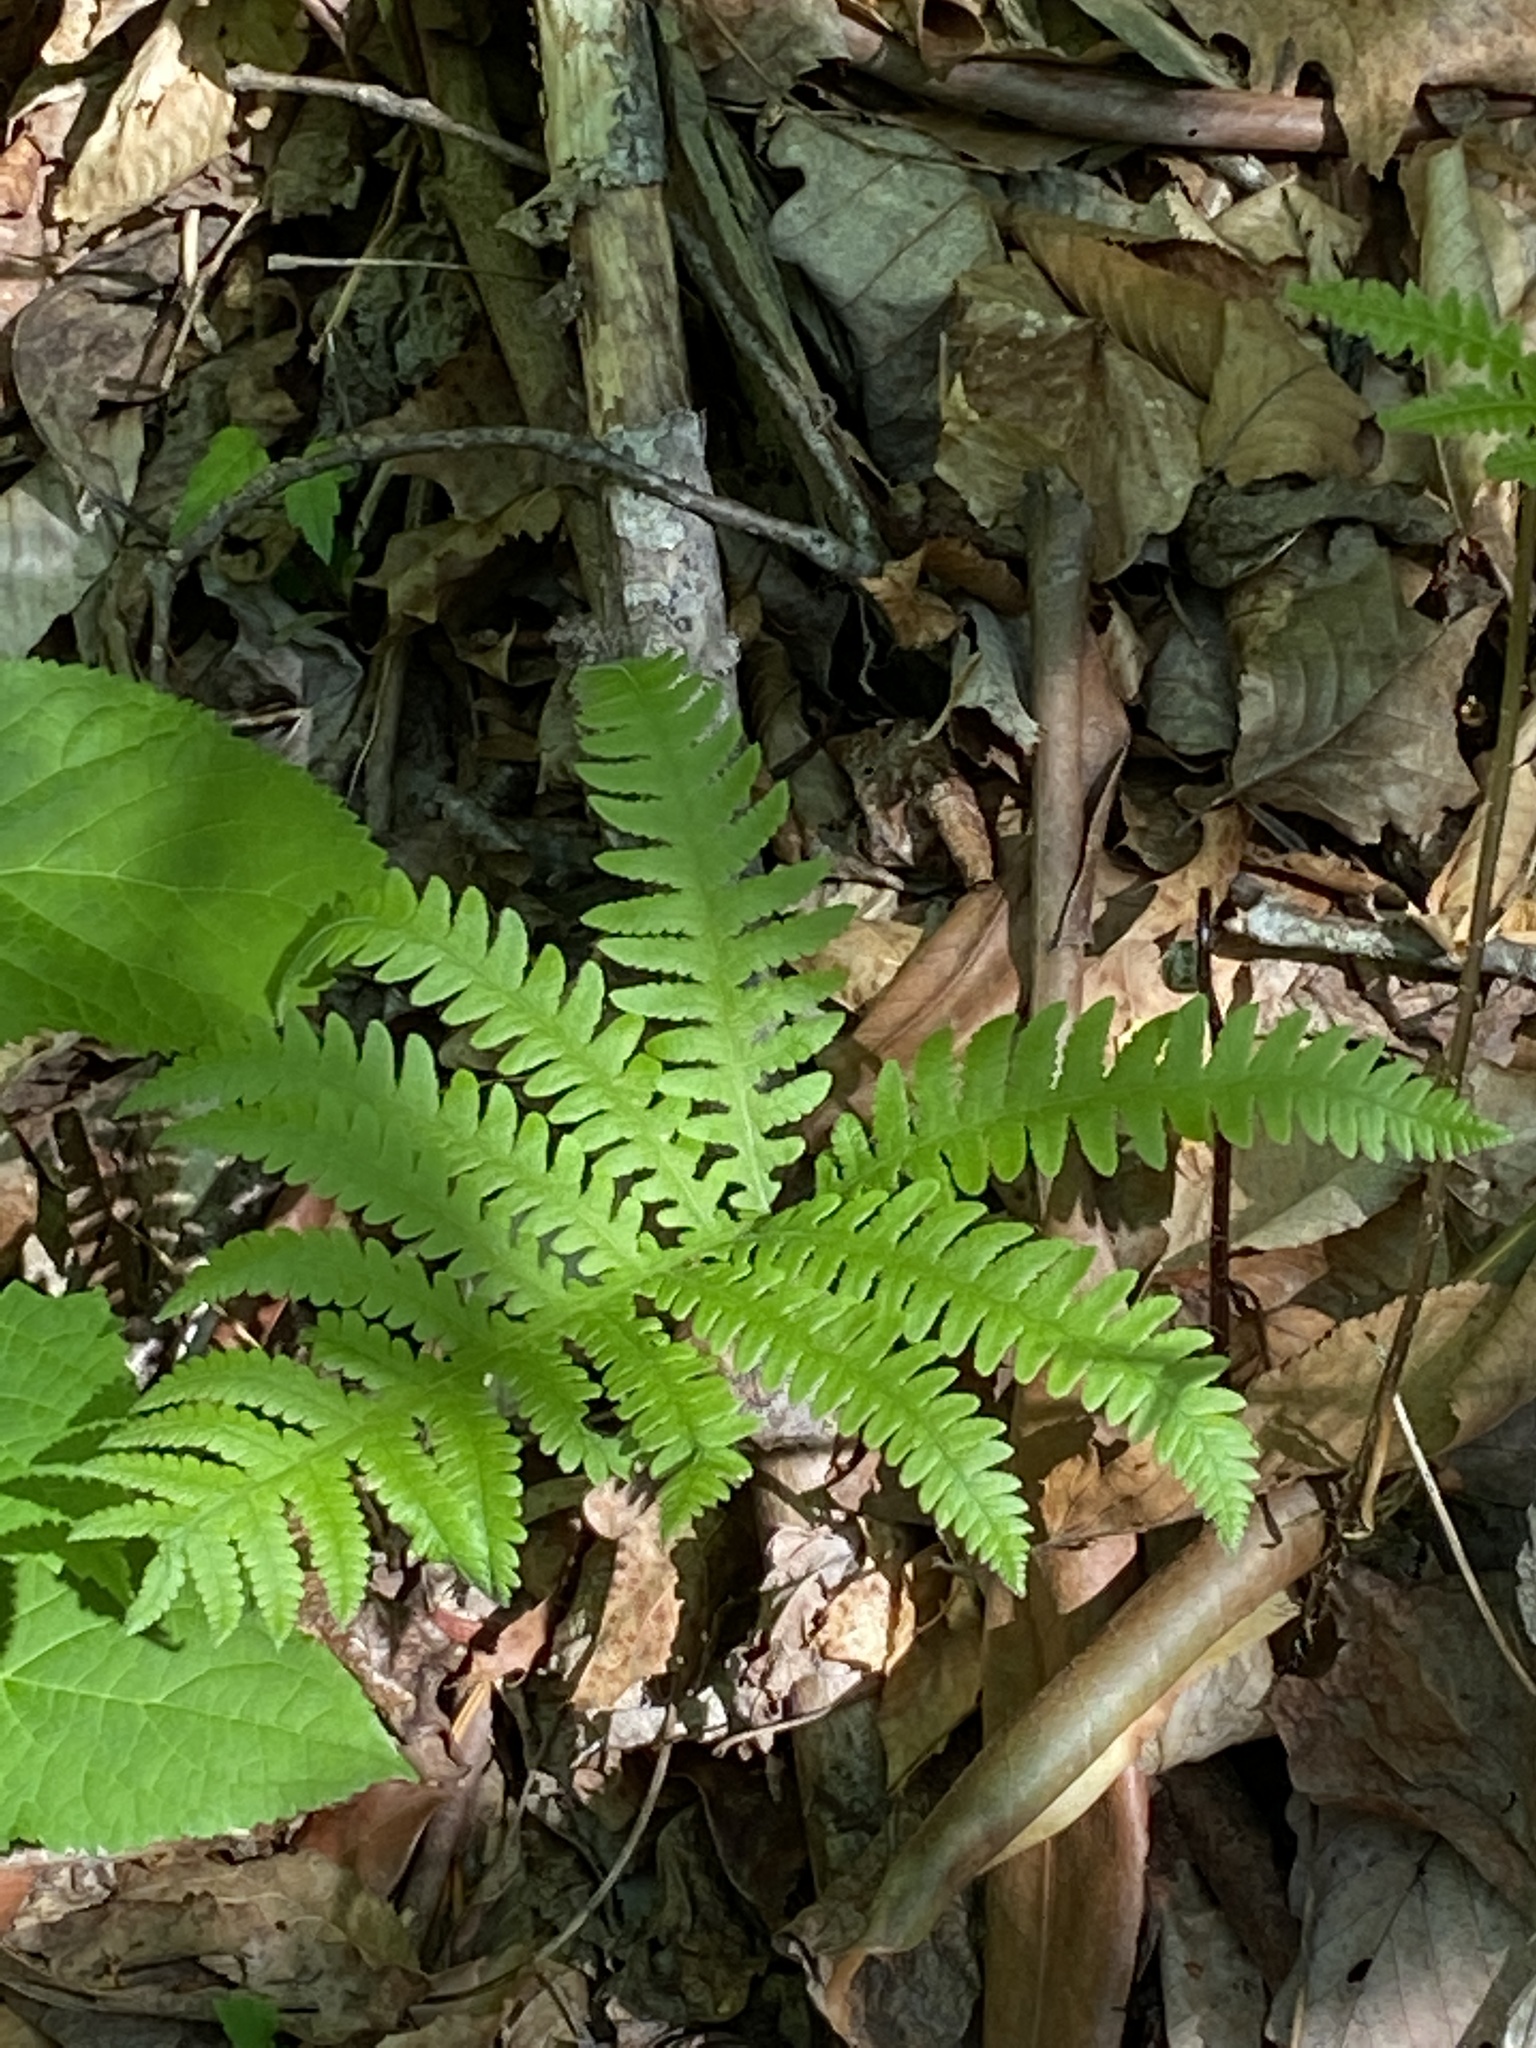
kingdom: Plantae
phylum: Tracheophyta
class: Polypodiopsida
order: Polypodiales
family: Thelypteridaceae
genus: Phegopteris
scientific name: Phegopteris hexagonoptera
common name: Broad beech fern
